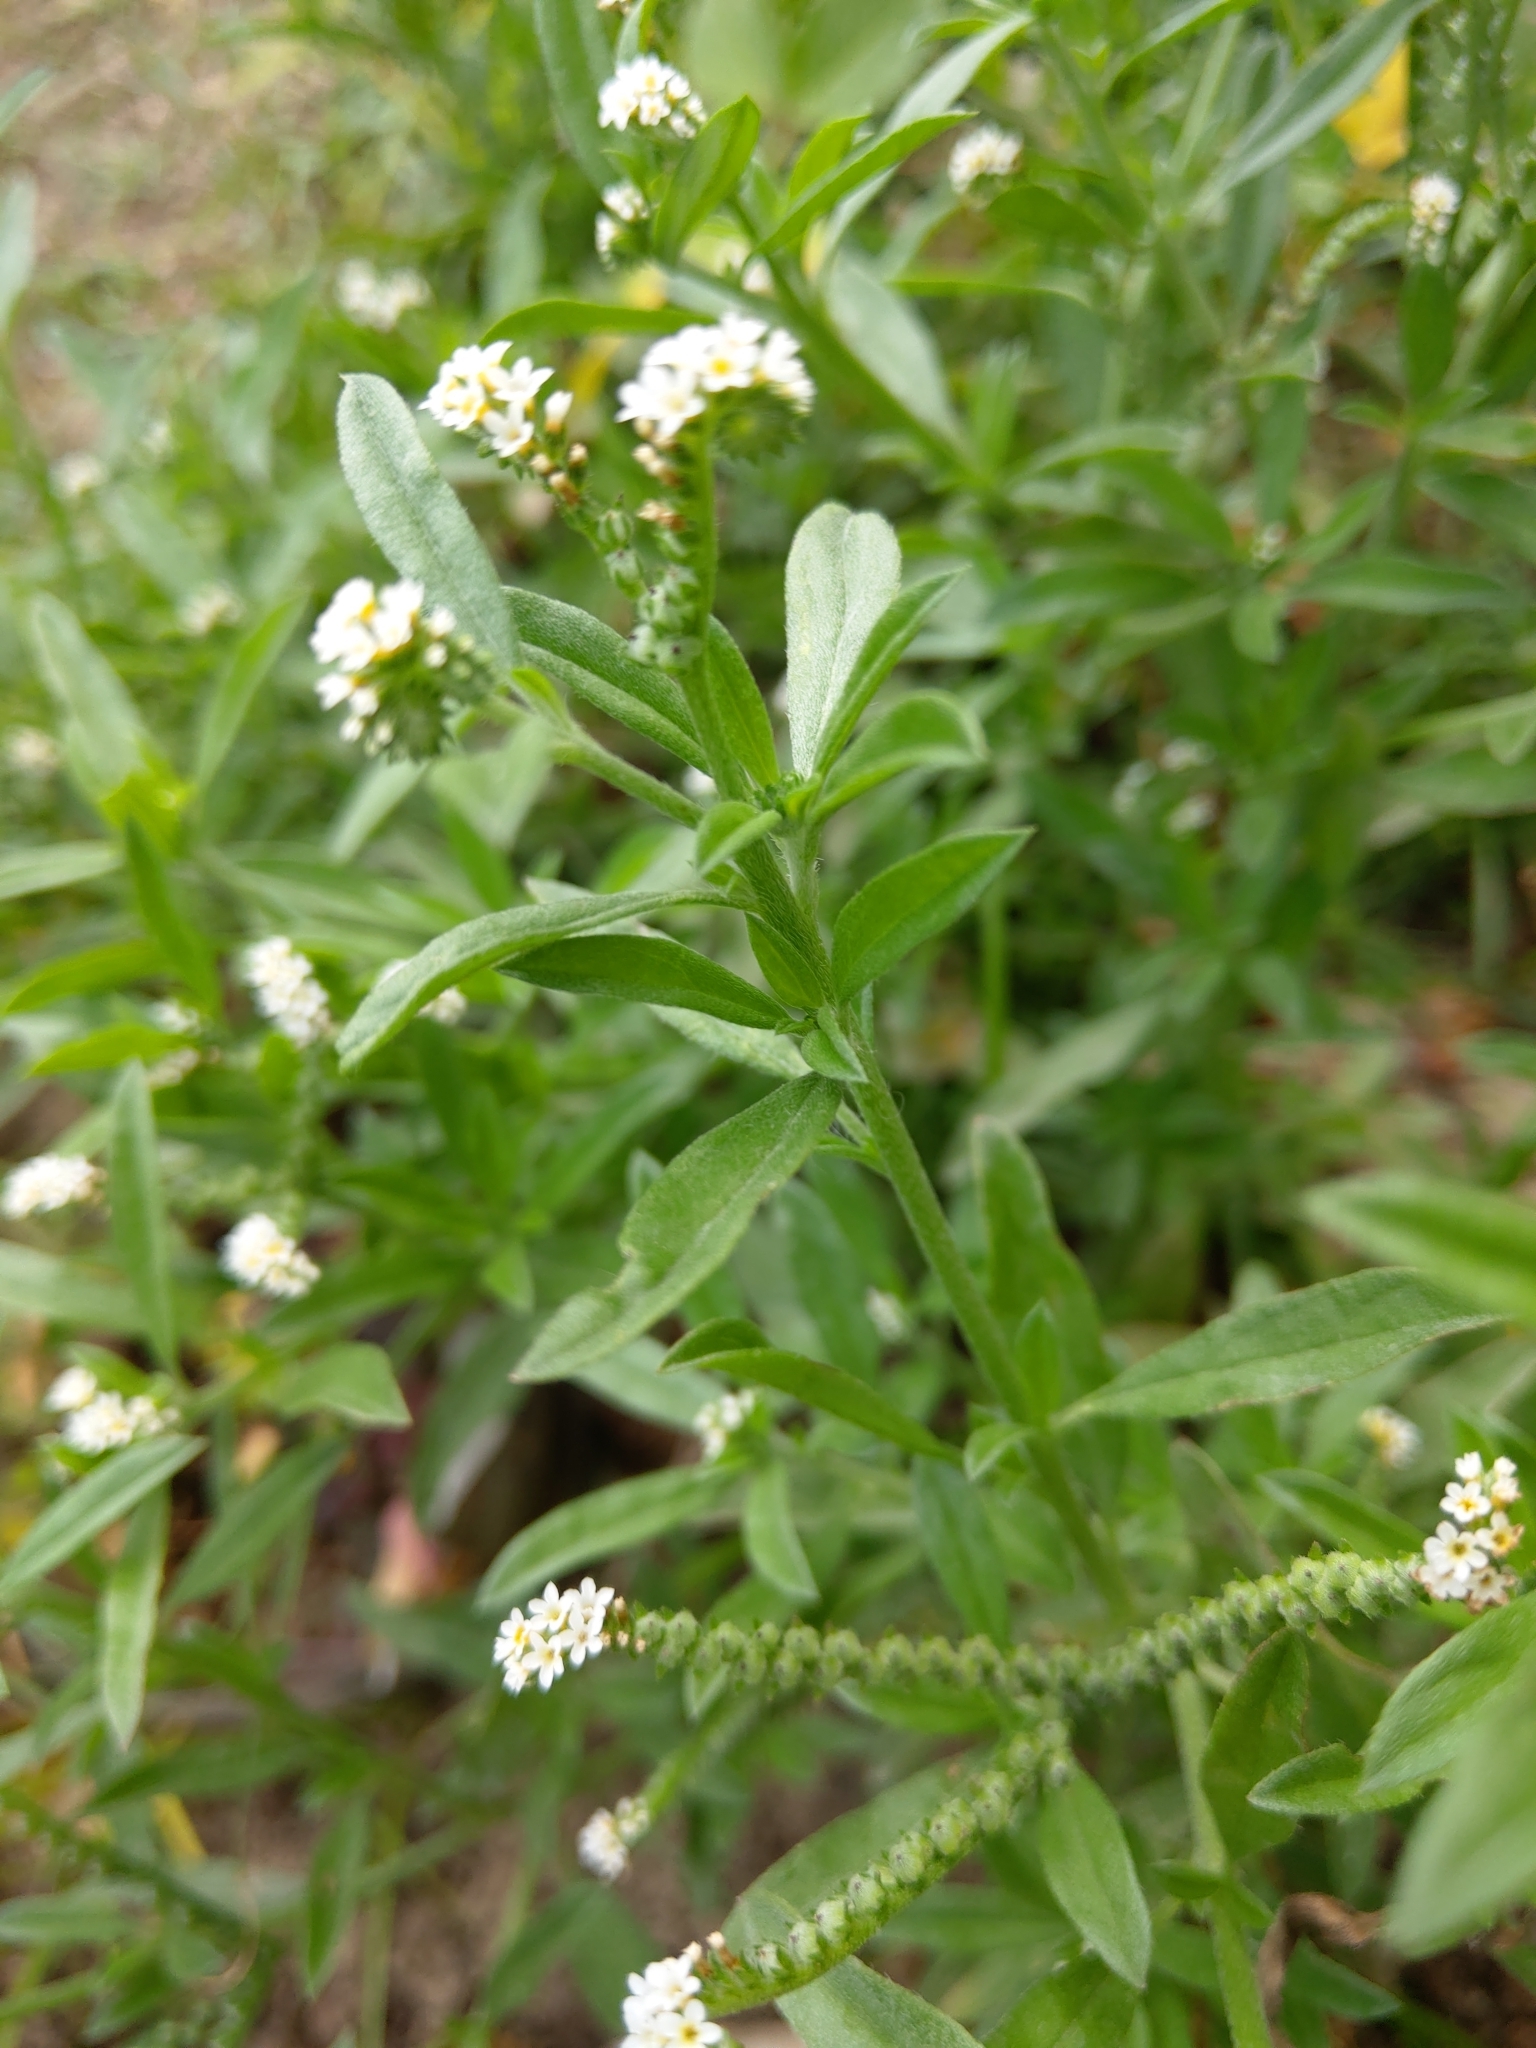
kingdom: Plantae
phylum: Tracheophyta
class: Magnoliopsida
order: Boraginales
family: Heliotropiaceae
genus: Euploca
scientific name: Euploca procumbens
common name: Fourspike heliotrope
